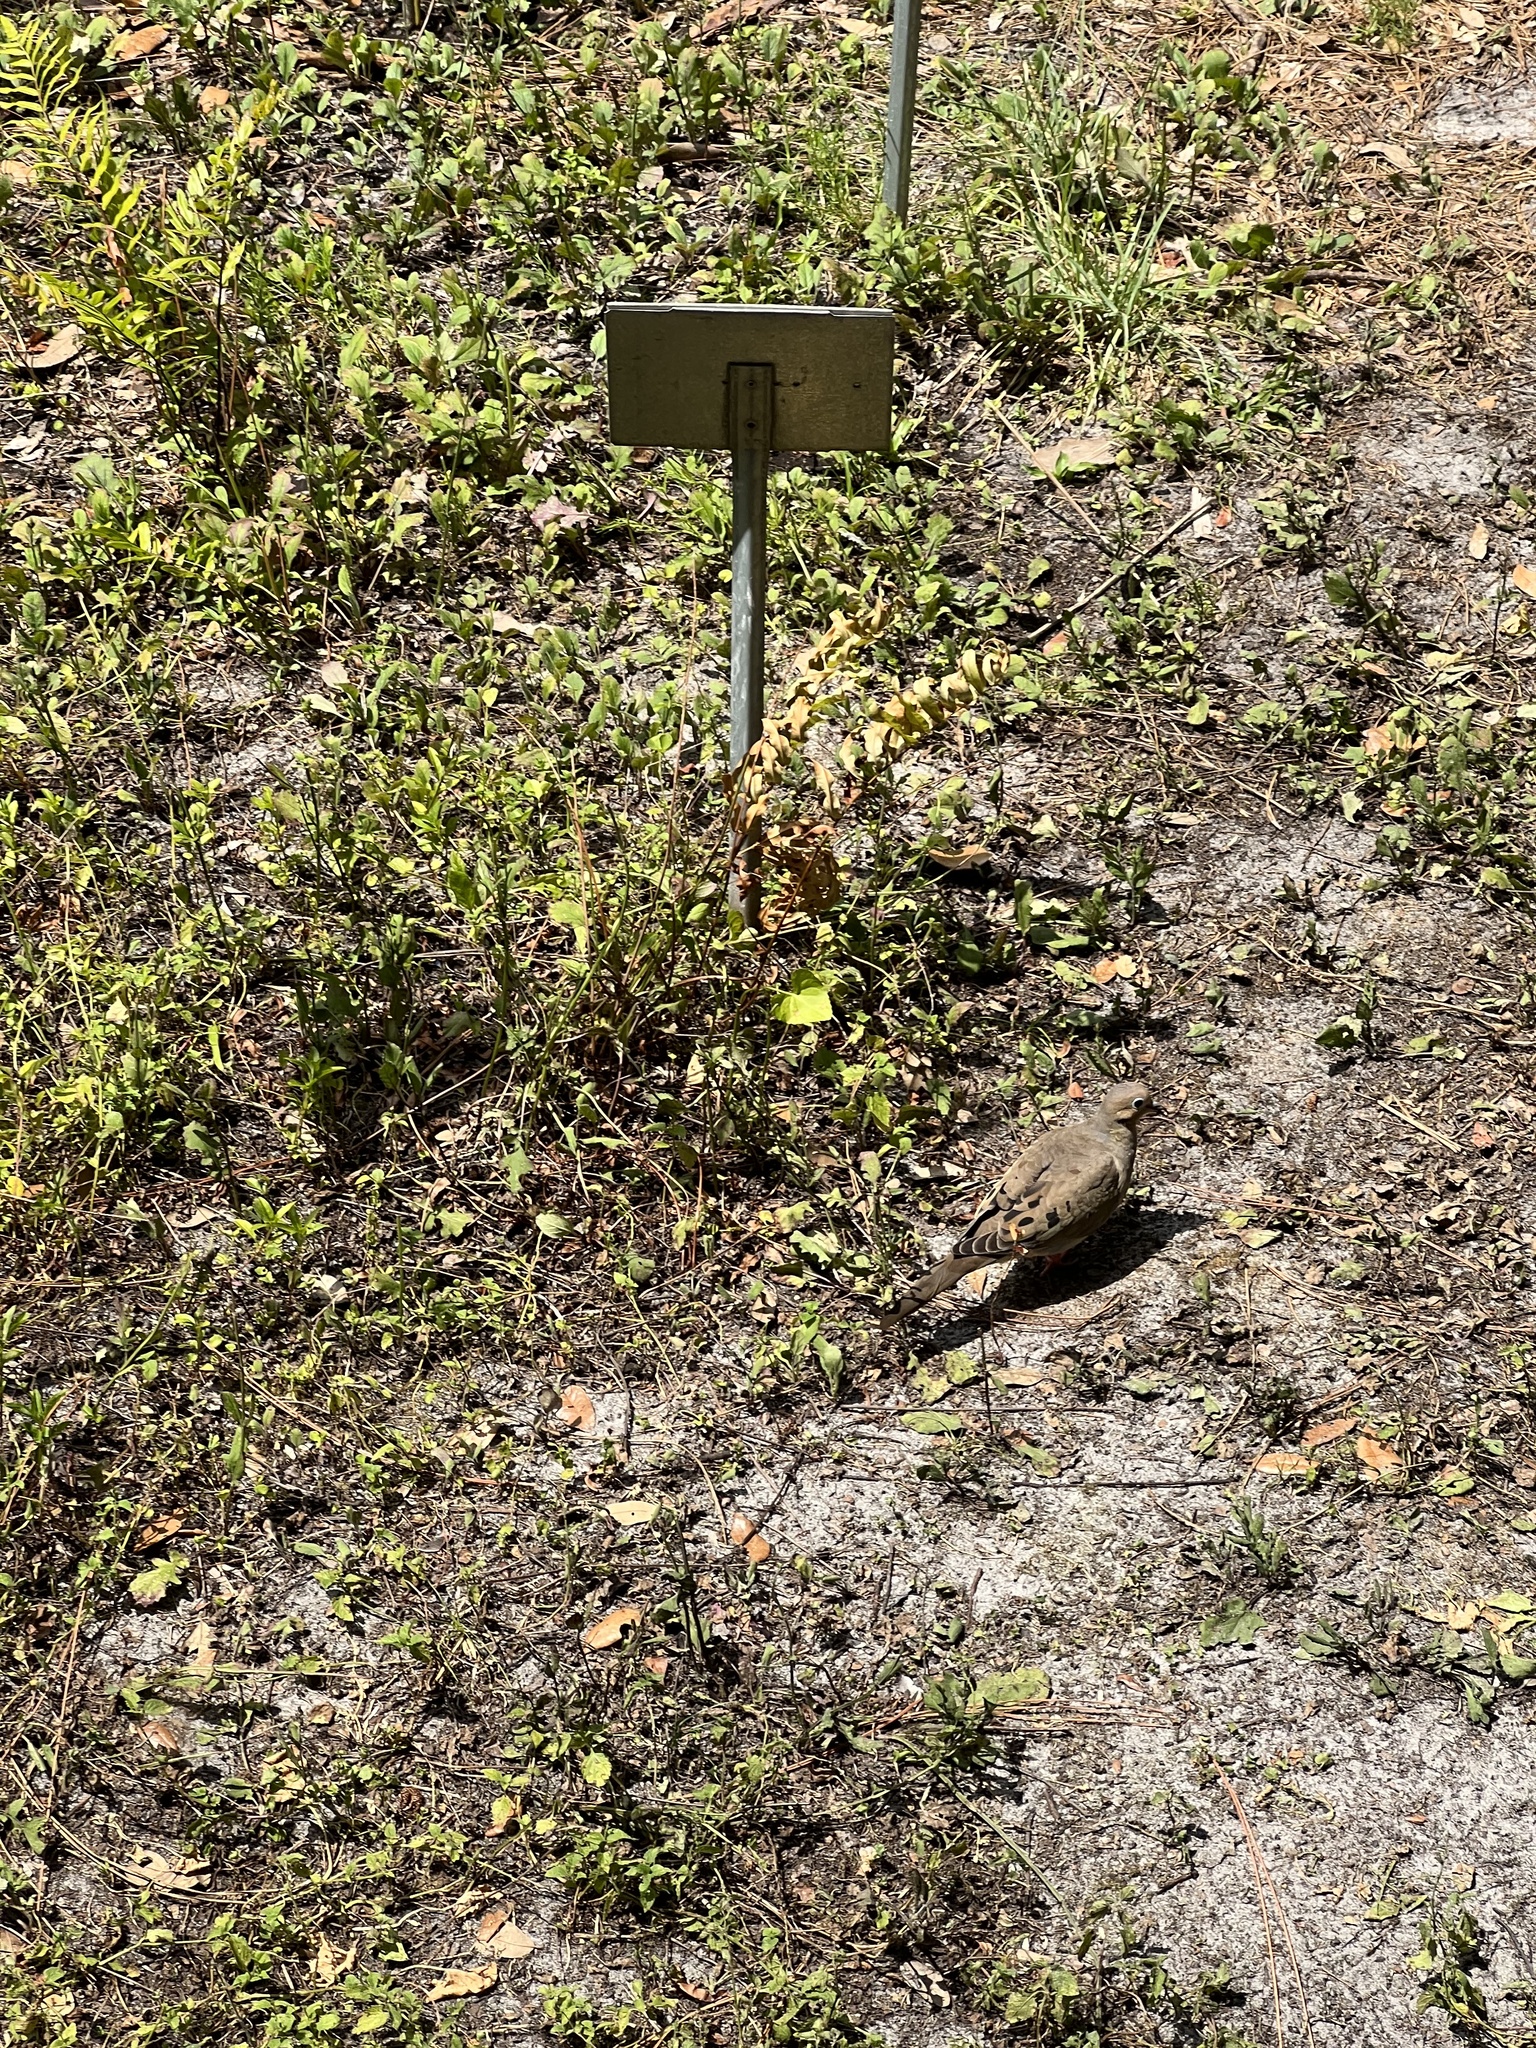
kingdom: Animalia
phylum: Chordata
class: Aves
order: Columbiformes
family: Columbidae
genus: Zenaida
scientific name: Zenaida macroura
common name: Mourning dove
